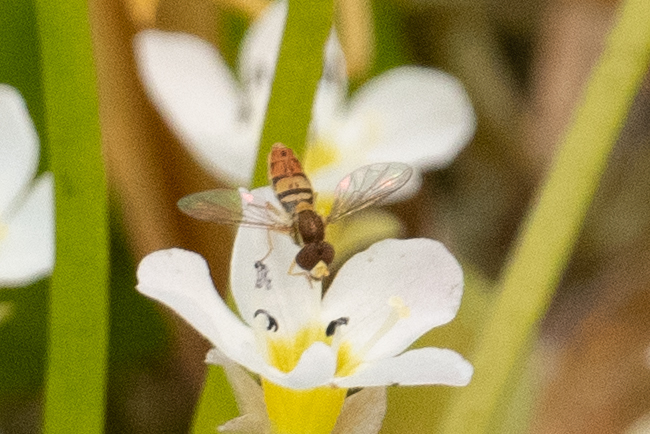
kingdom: Animalia
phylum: Arthropoda
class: Insecta
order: Diptera
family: Syrphidae
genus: Toxomerus
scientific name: Toxomerus marginatus
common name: Syrphid fly
